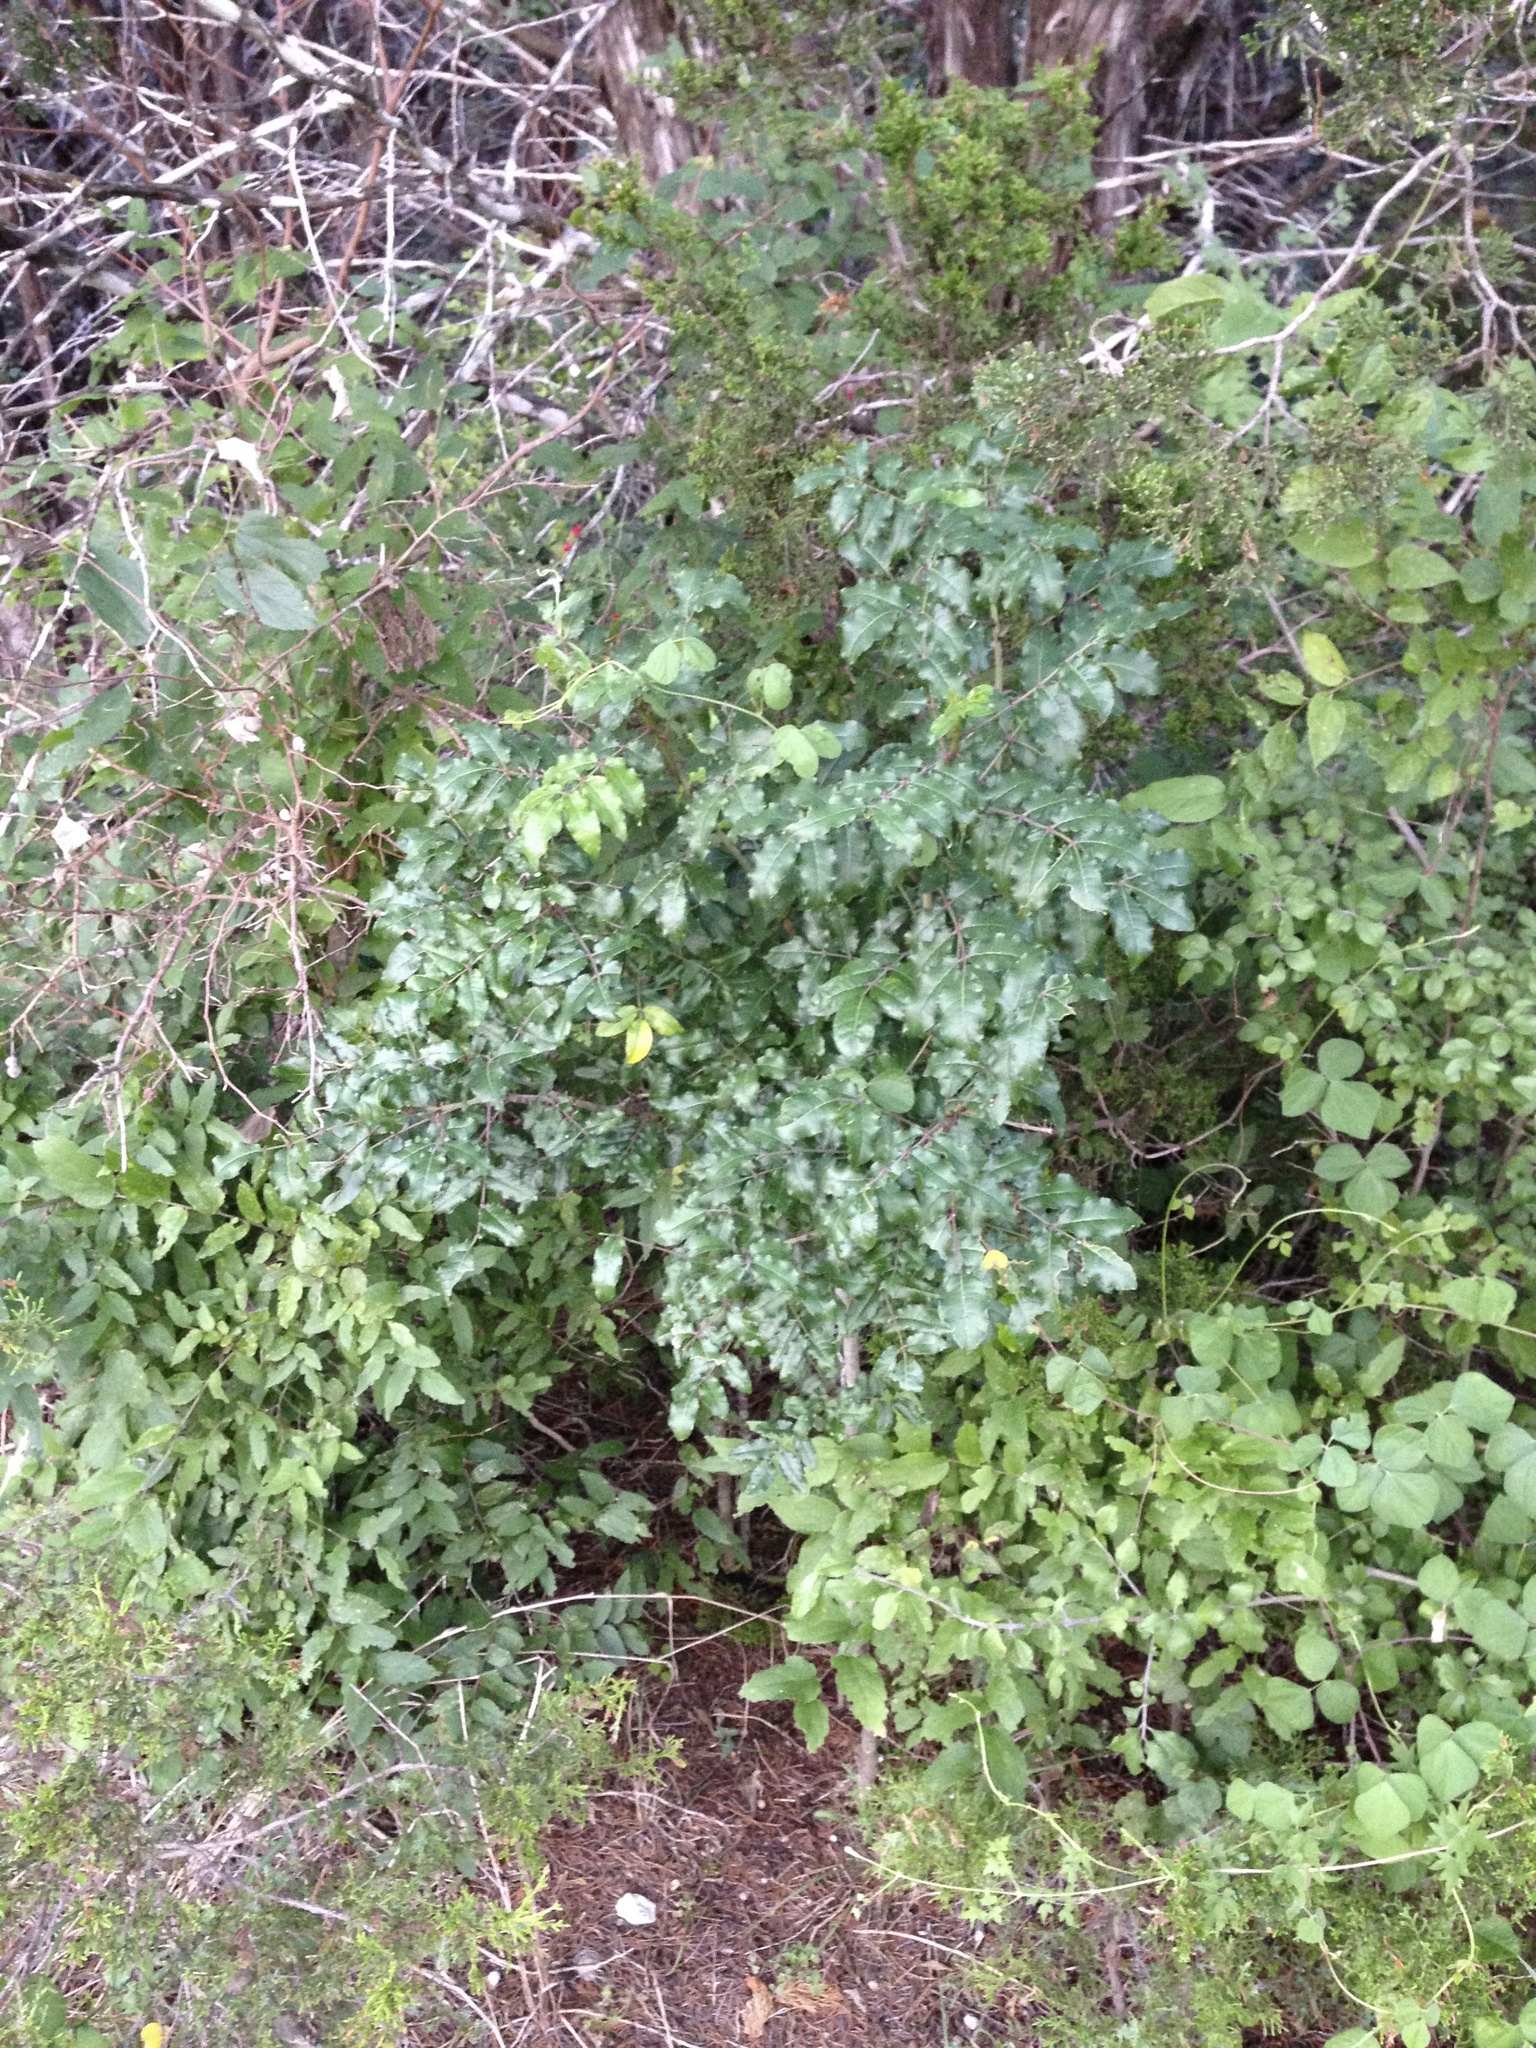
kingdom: Plantae
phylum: Tracheophyta
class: Magnoliopsida
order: Sapindales
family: Rutaceae
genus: Zanthoxylum
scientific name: Zanthoxylum clava-herculis
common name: Hercules'-club
